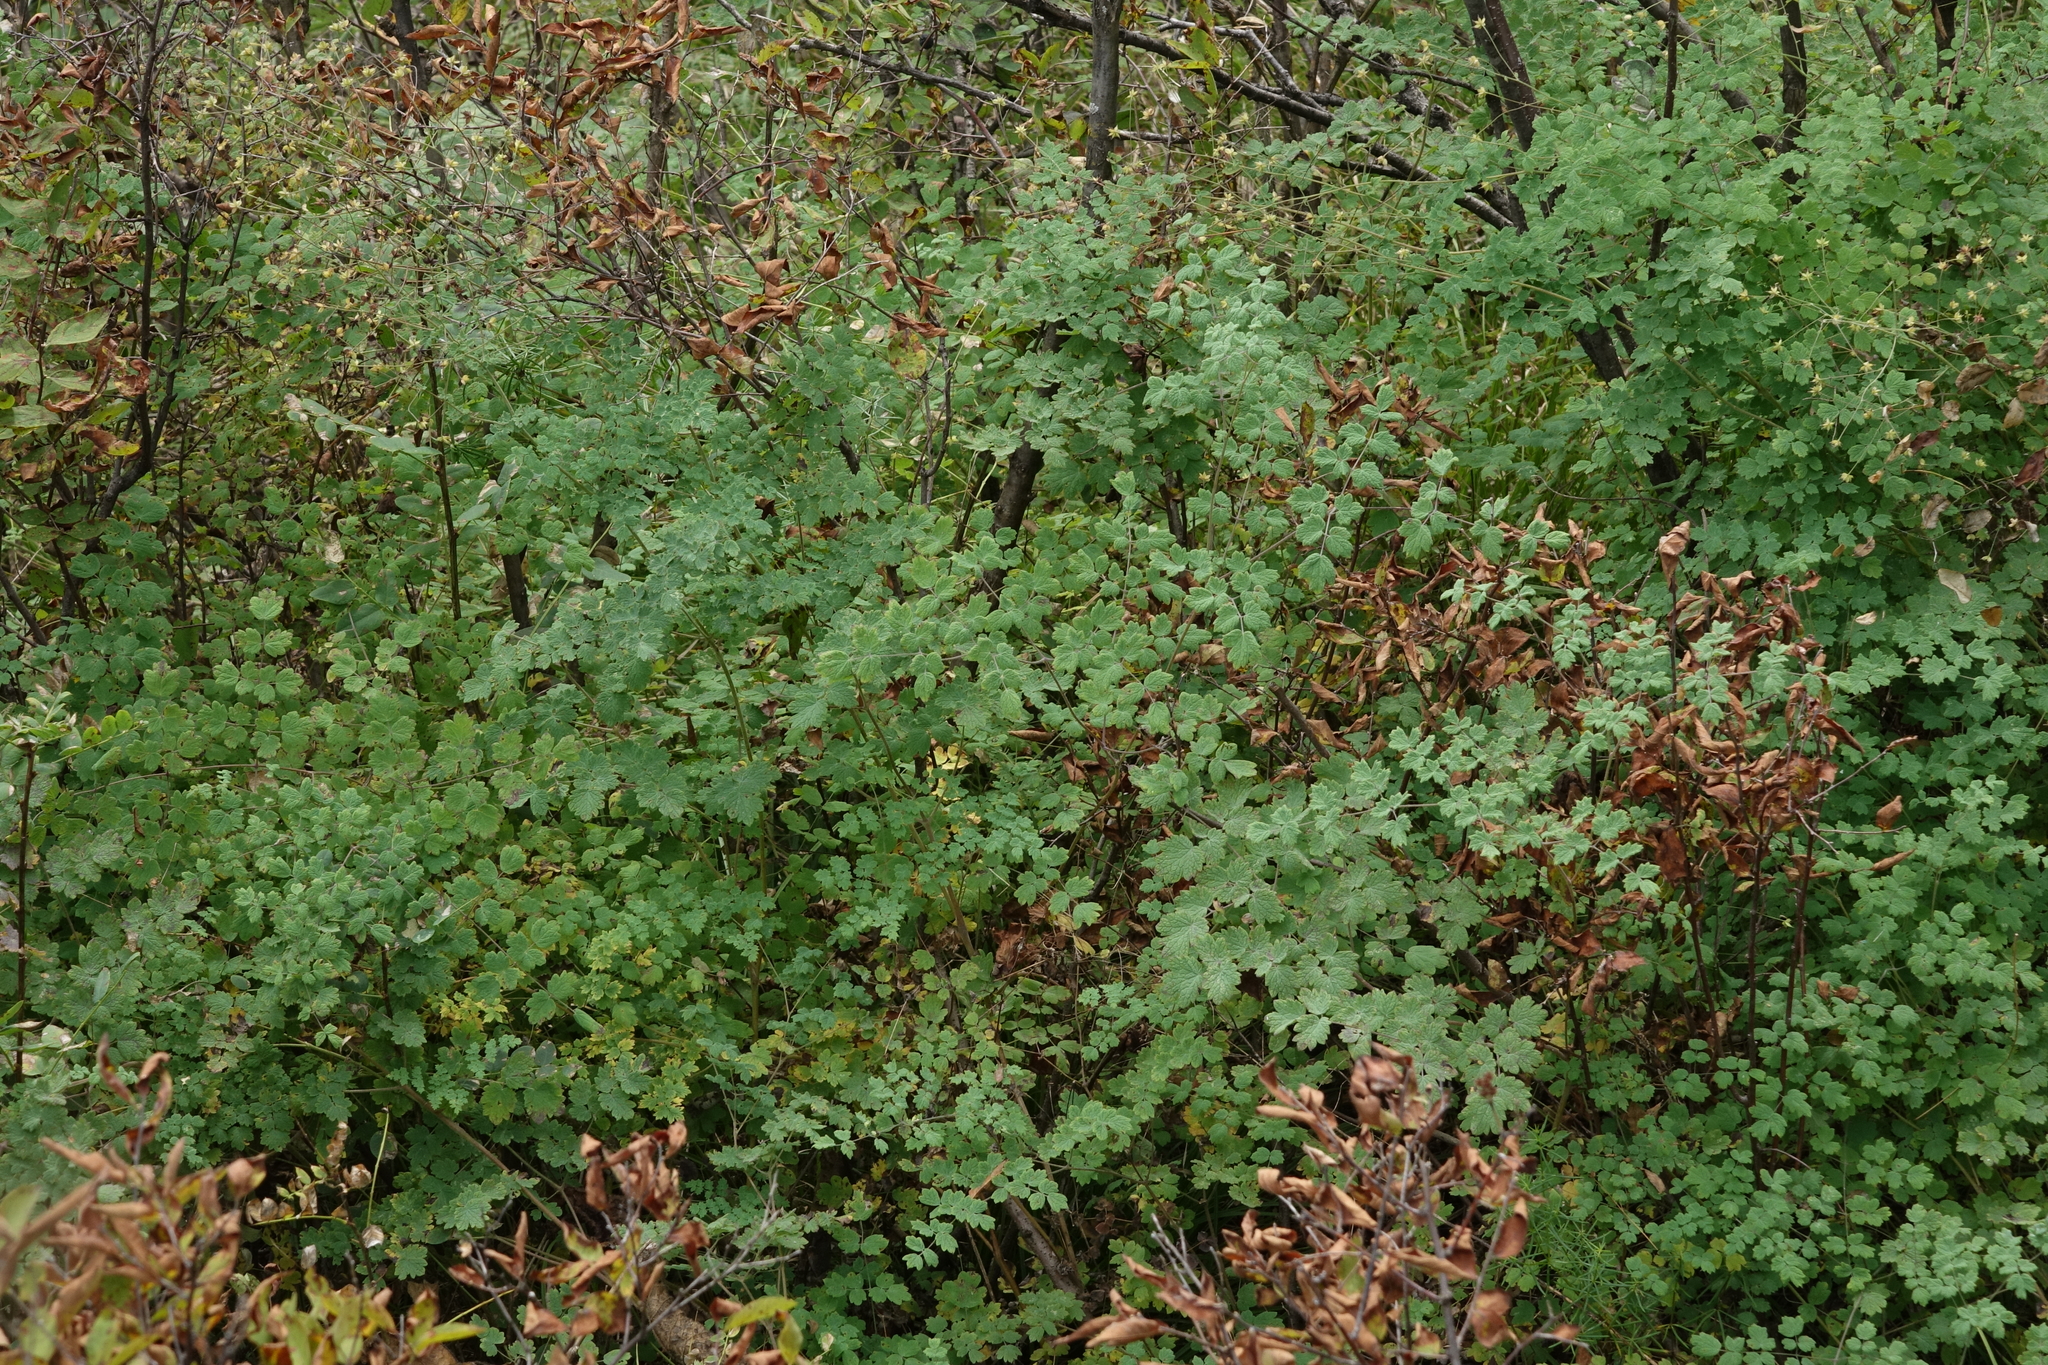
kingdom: Plantae
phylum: Tracheophyta
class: Magnoliopsida
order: Ranunculales
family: Ranunculaceae
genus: Thalictrum
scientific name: Thalictrum foetidum
